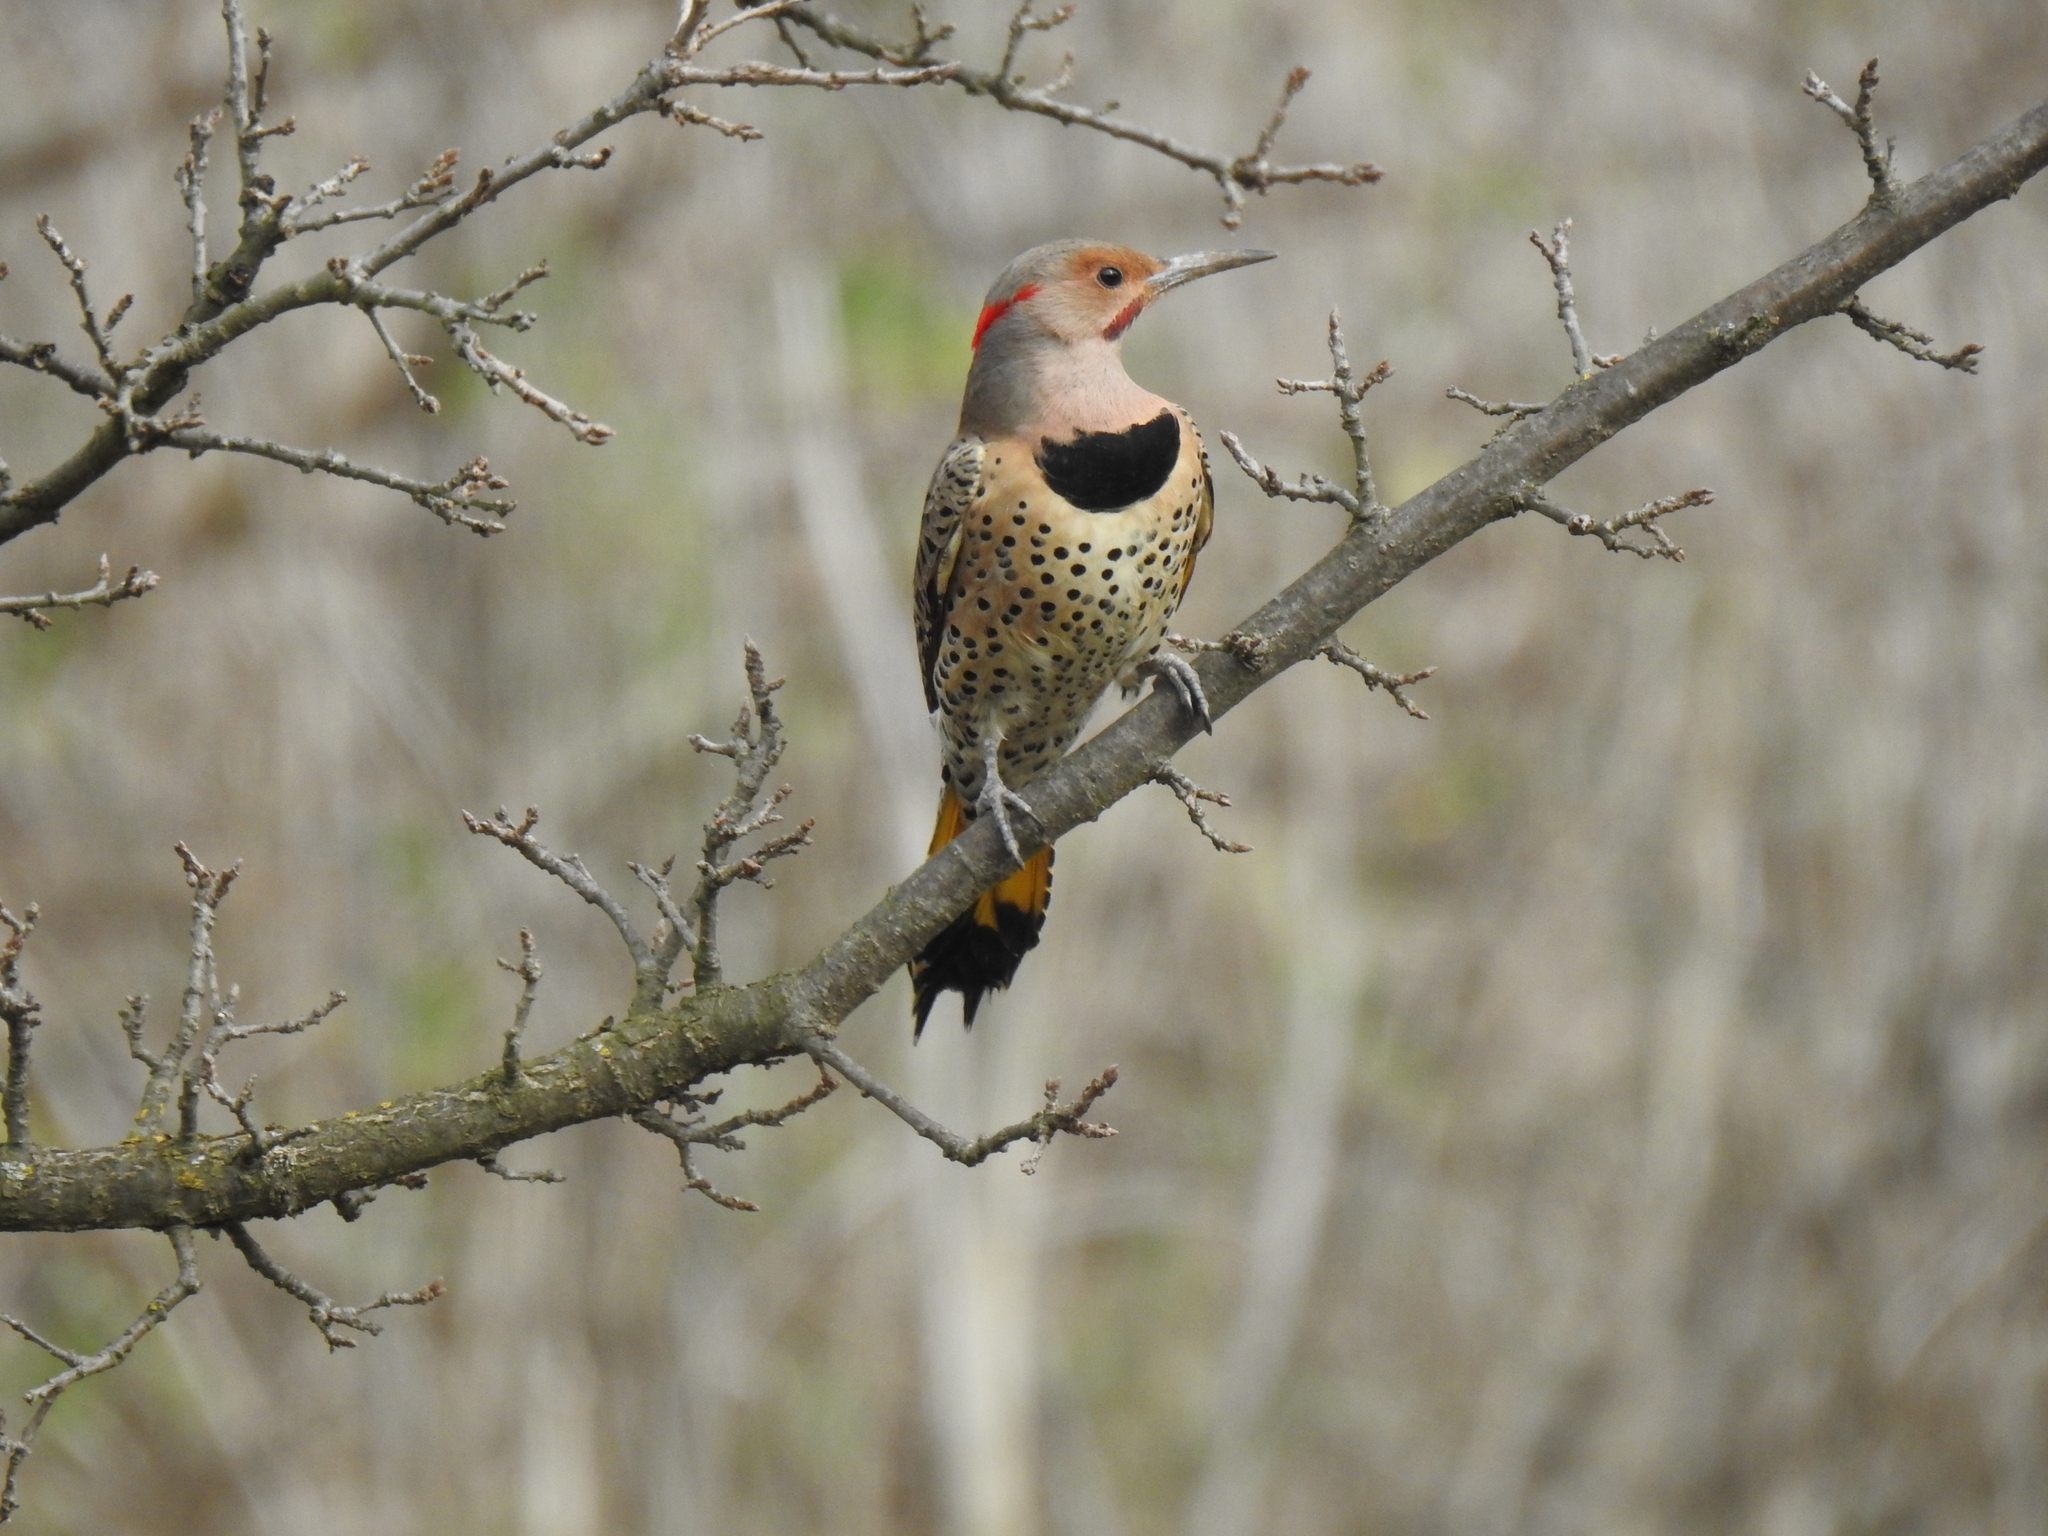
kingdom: Animalia
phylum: Chordata
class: Aves
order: Piciformes
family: Picidae
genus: Colaptes
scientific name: Colaptes auratus
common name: Northern flicker
